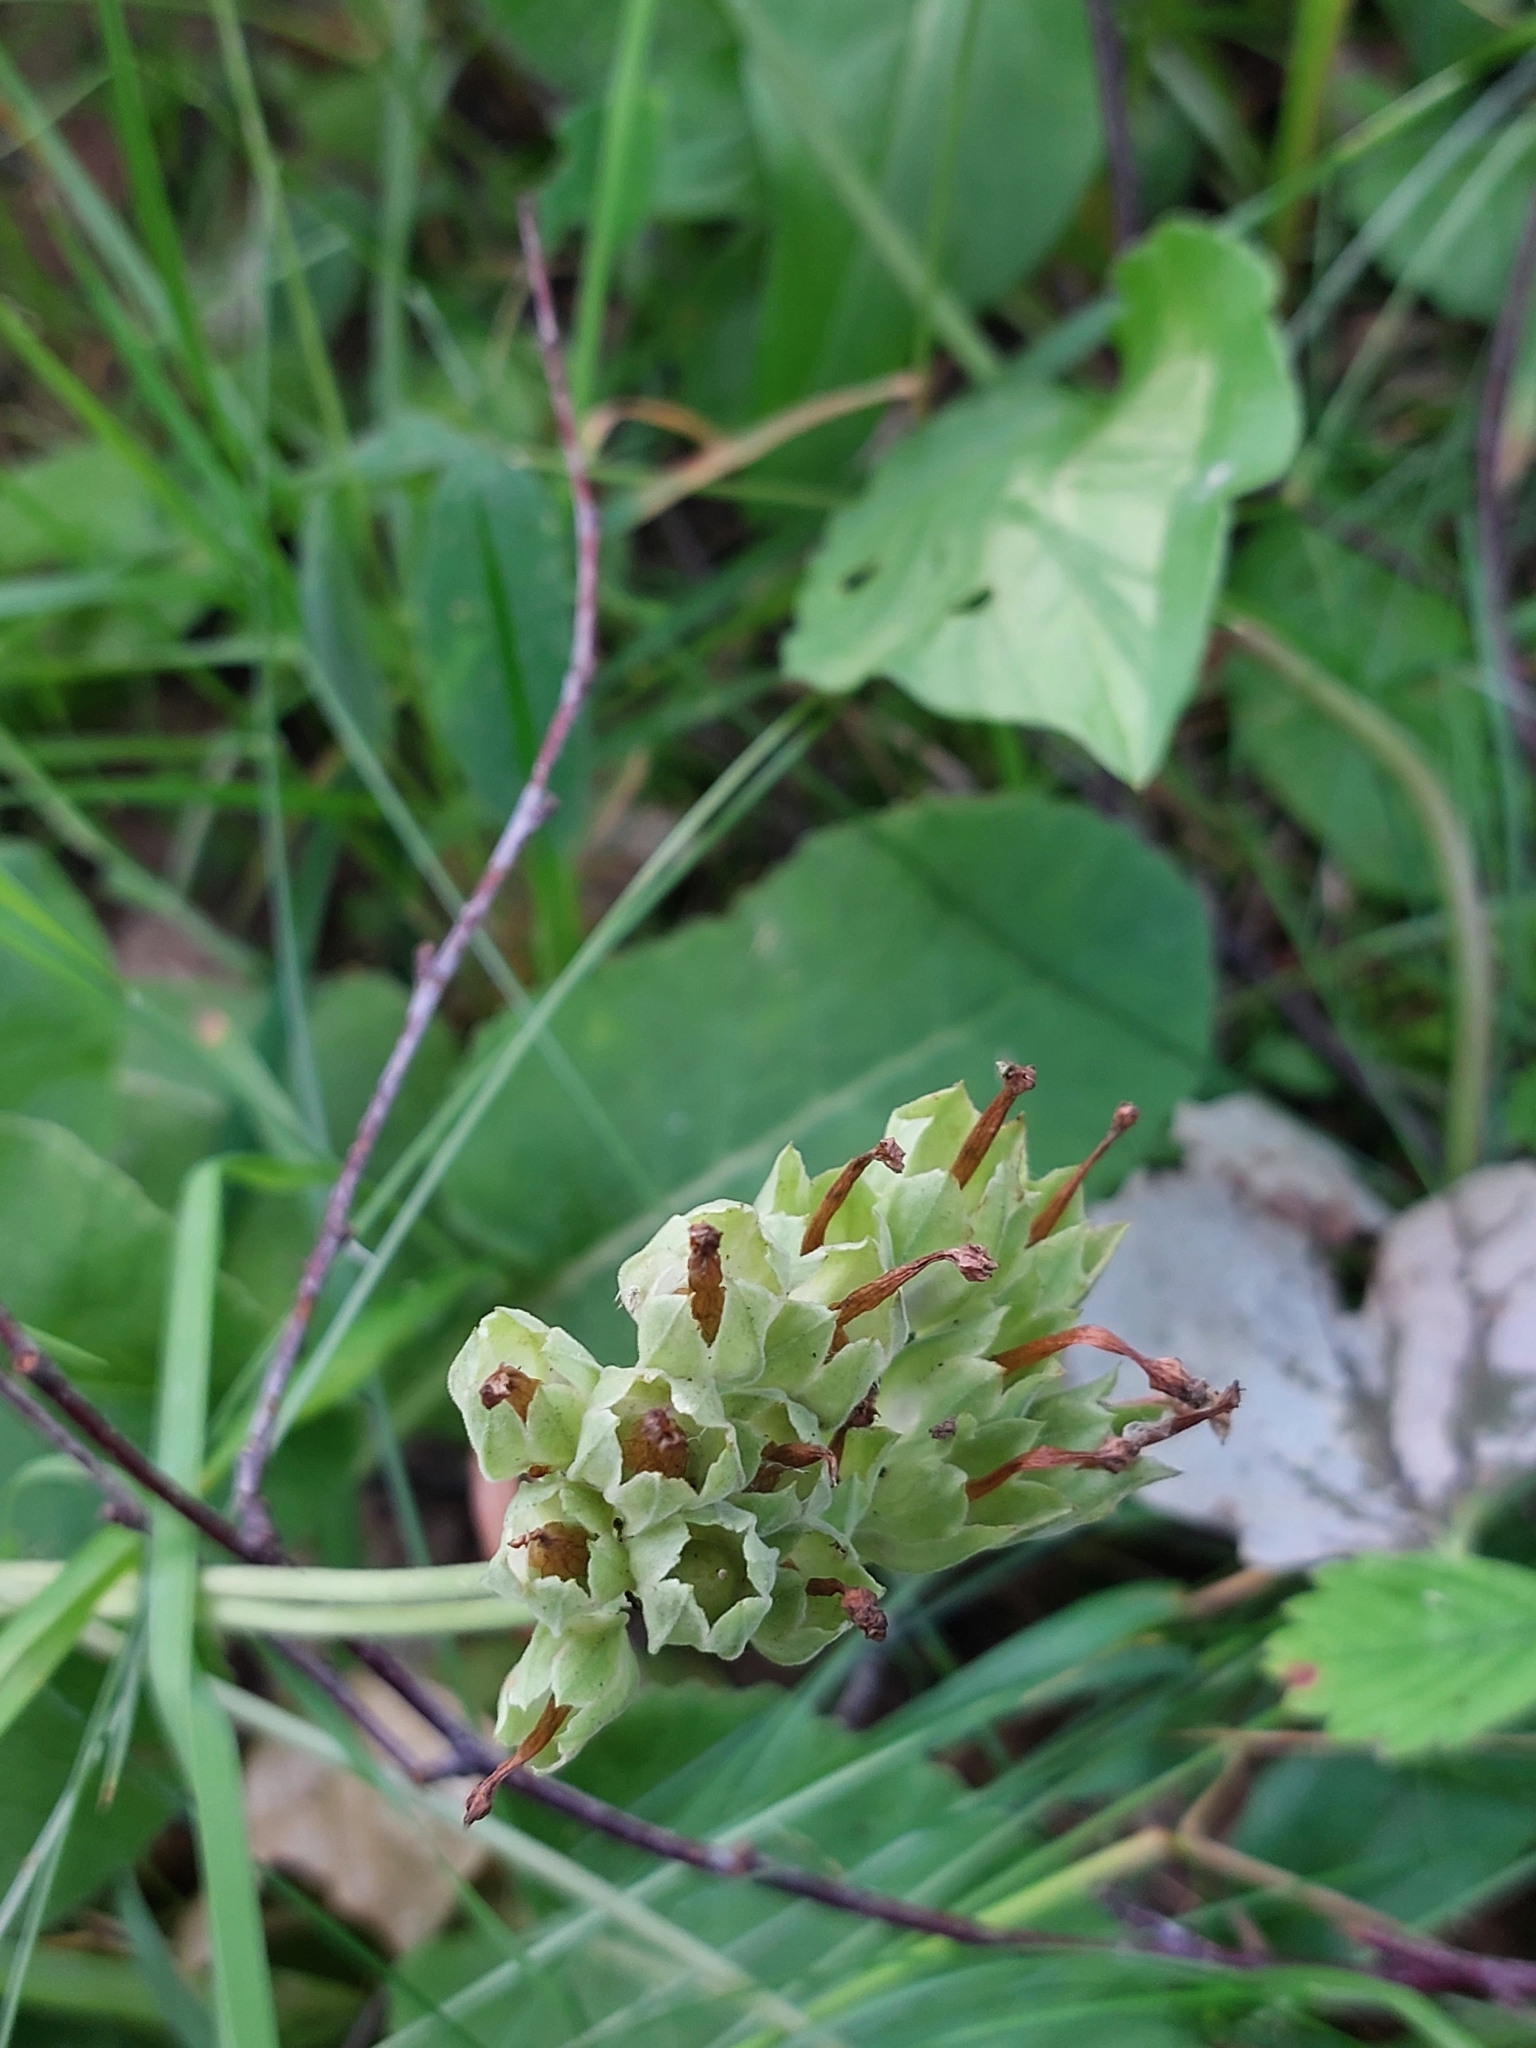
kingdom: Plantae
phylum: Tracheophyta
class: Magnoliopsida
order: Ericales
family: Primulaceae
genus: Primula
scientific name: Primula veris
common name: Cowslip
